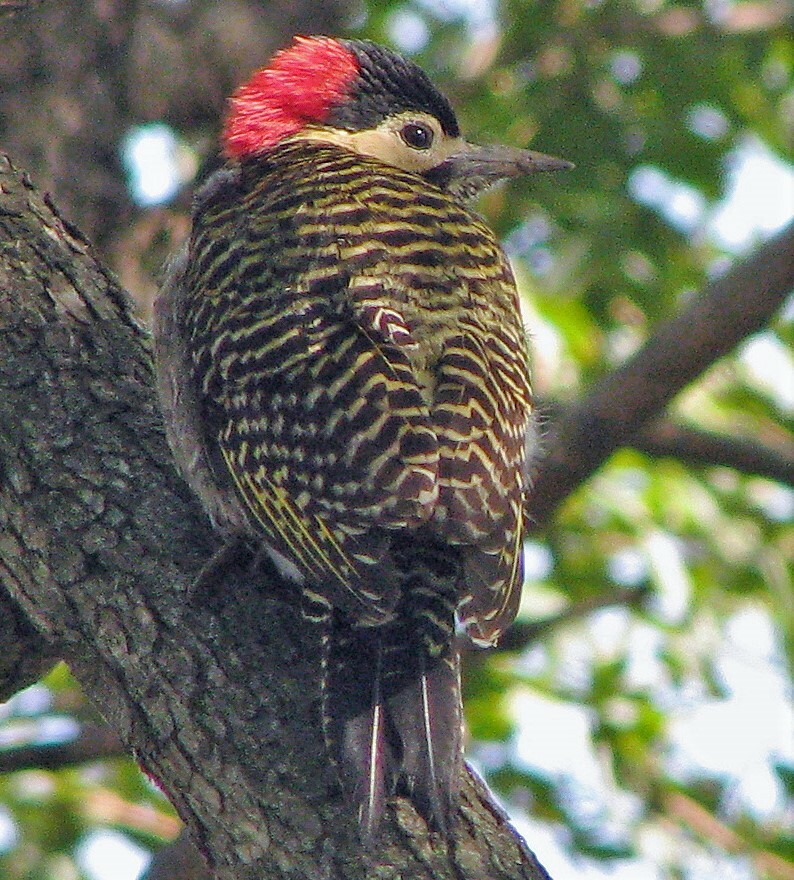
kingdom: Animalia
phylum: Chordata
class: Aves
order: Piciformes
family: Picidae
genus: Colaptes
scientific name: Colaptes melanochloros
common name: Green-barred woodpecker
